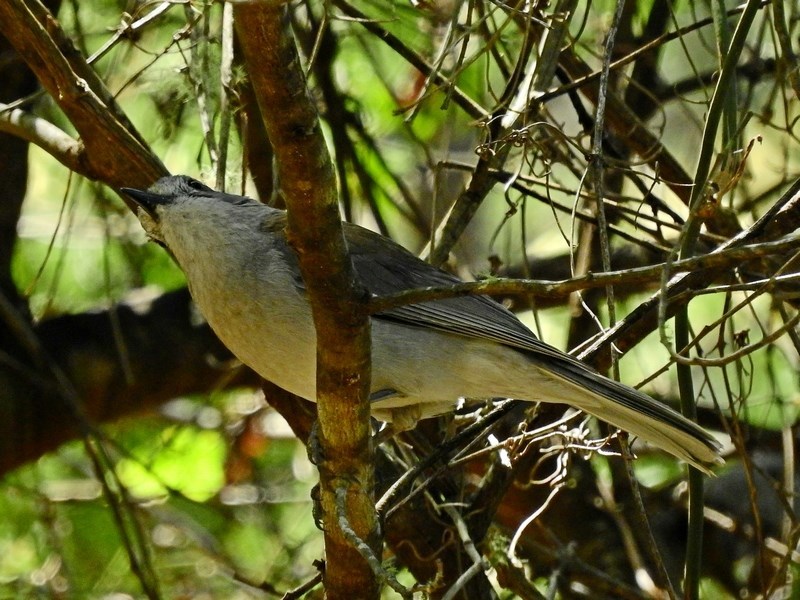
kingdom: Animalia
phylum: Chordata
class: Aves
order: Passeriformes
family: Pachycephalidae
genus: Colluricincla
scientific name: Colluricincla harmonica
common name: Grey shrikethrush
